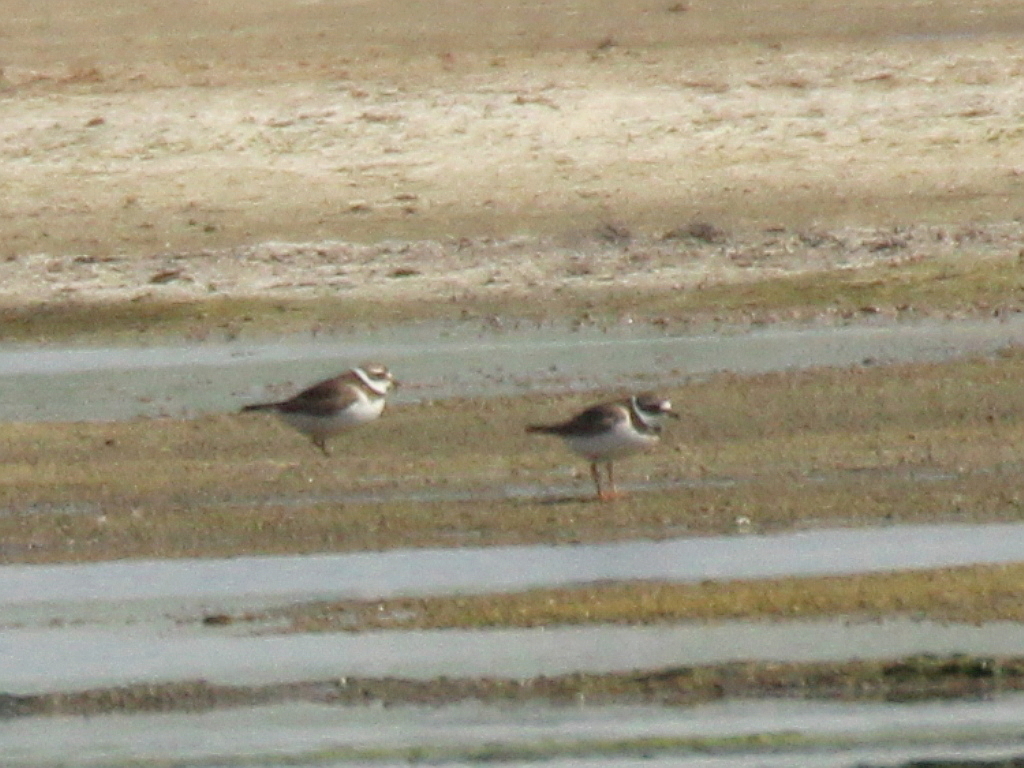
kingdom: Animalia
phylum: Chordata
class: Aves
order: Charadriiformes
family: Charadriidae
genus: Charadrius
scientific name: Charadrius hiaticula
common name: Common ringed plover
